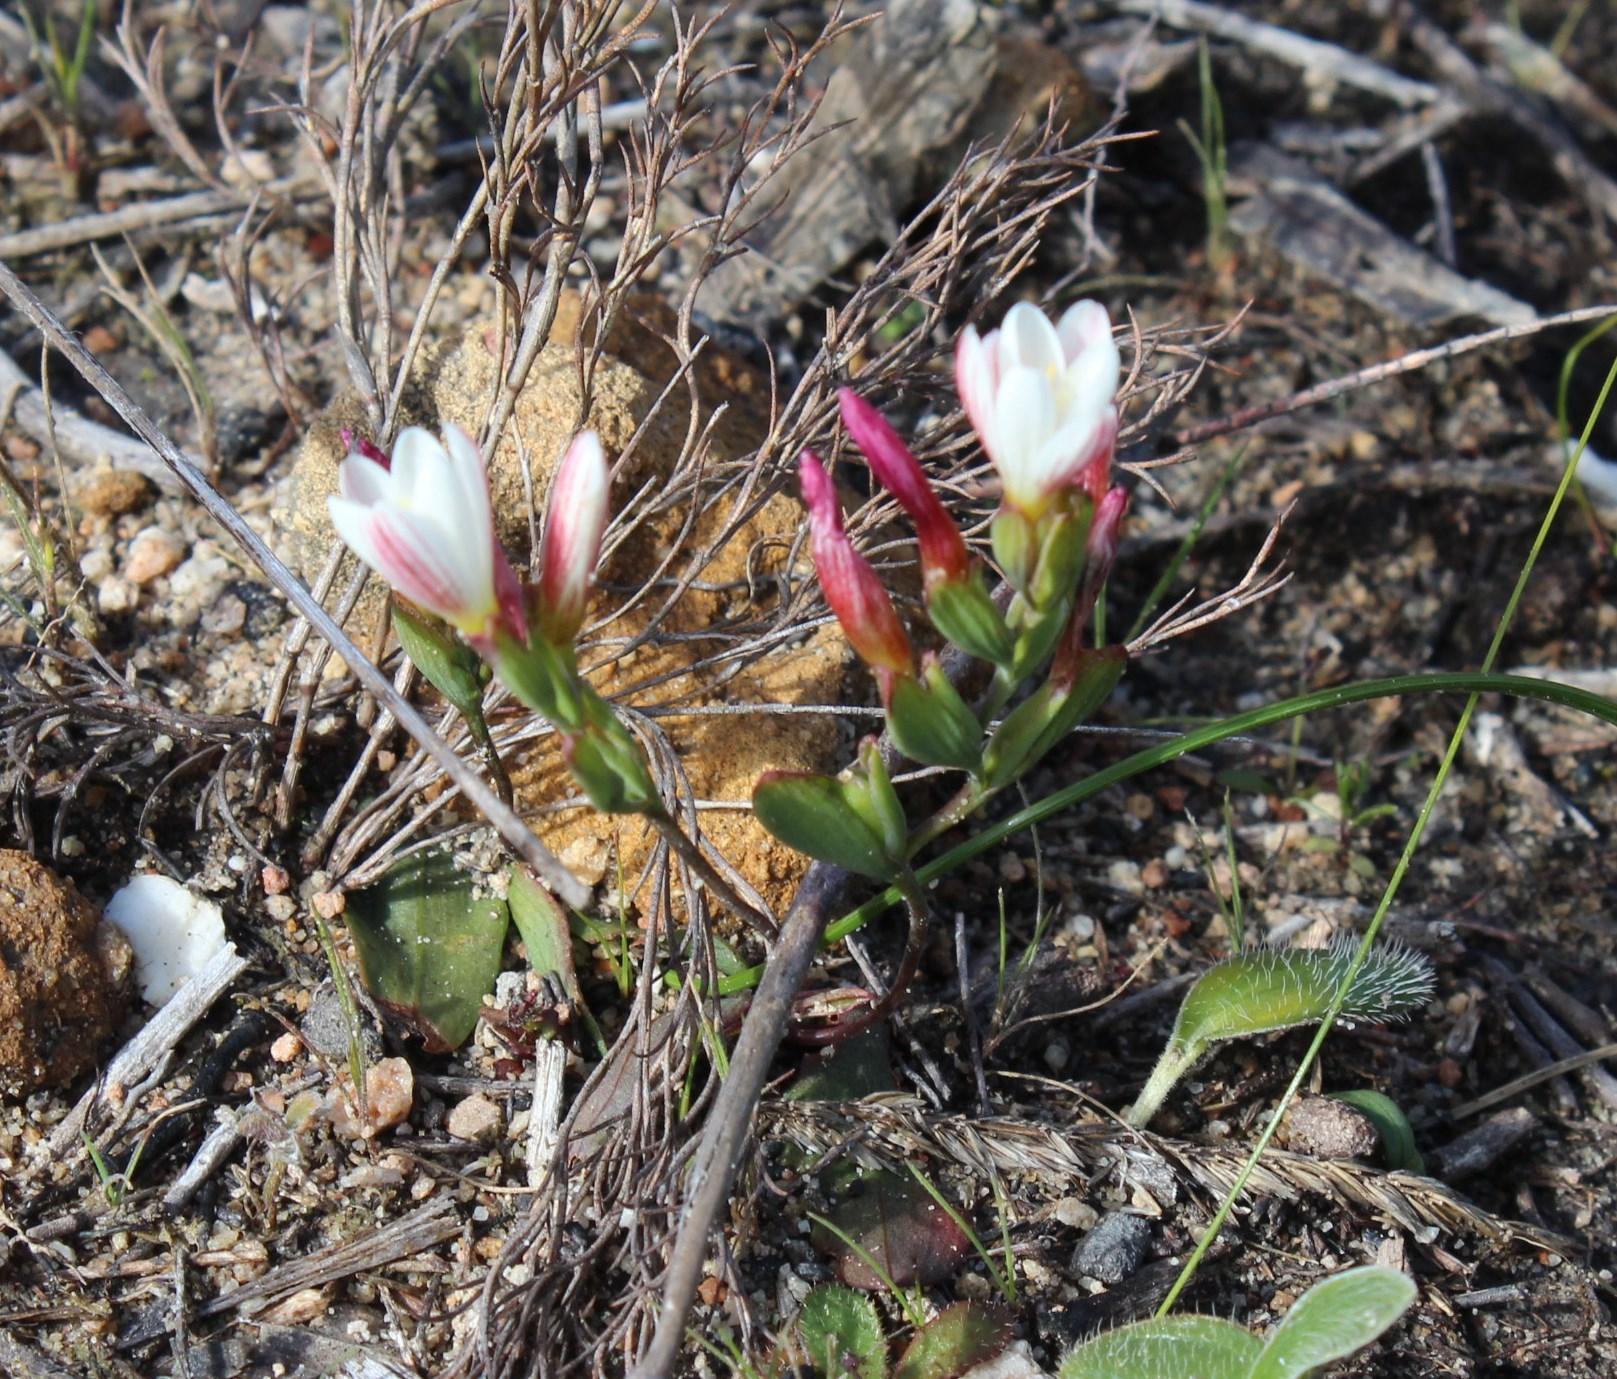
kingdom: Plantae
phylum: Tracheophyta
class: Liliopsida
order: Asparagales
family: Iridaceae
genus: Geissorhiza
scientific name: Geissorhiza ovata
